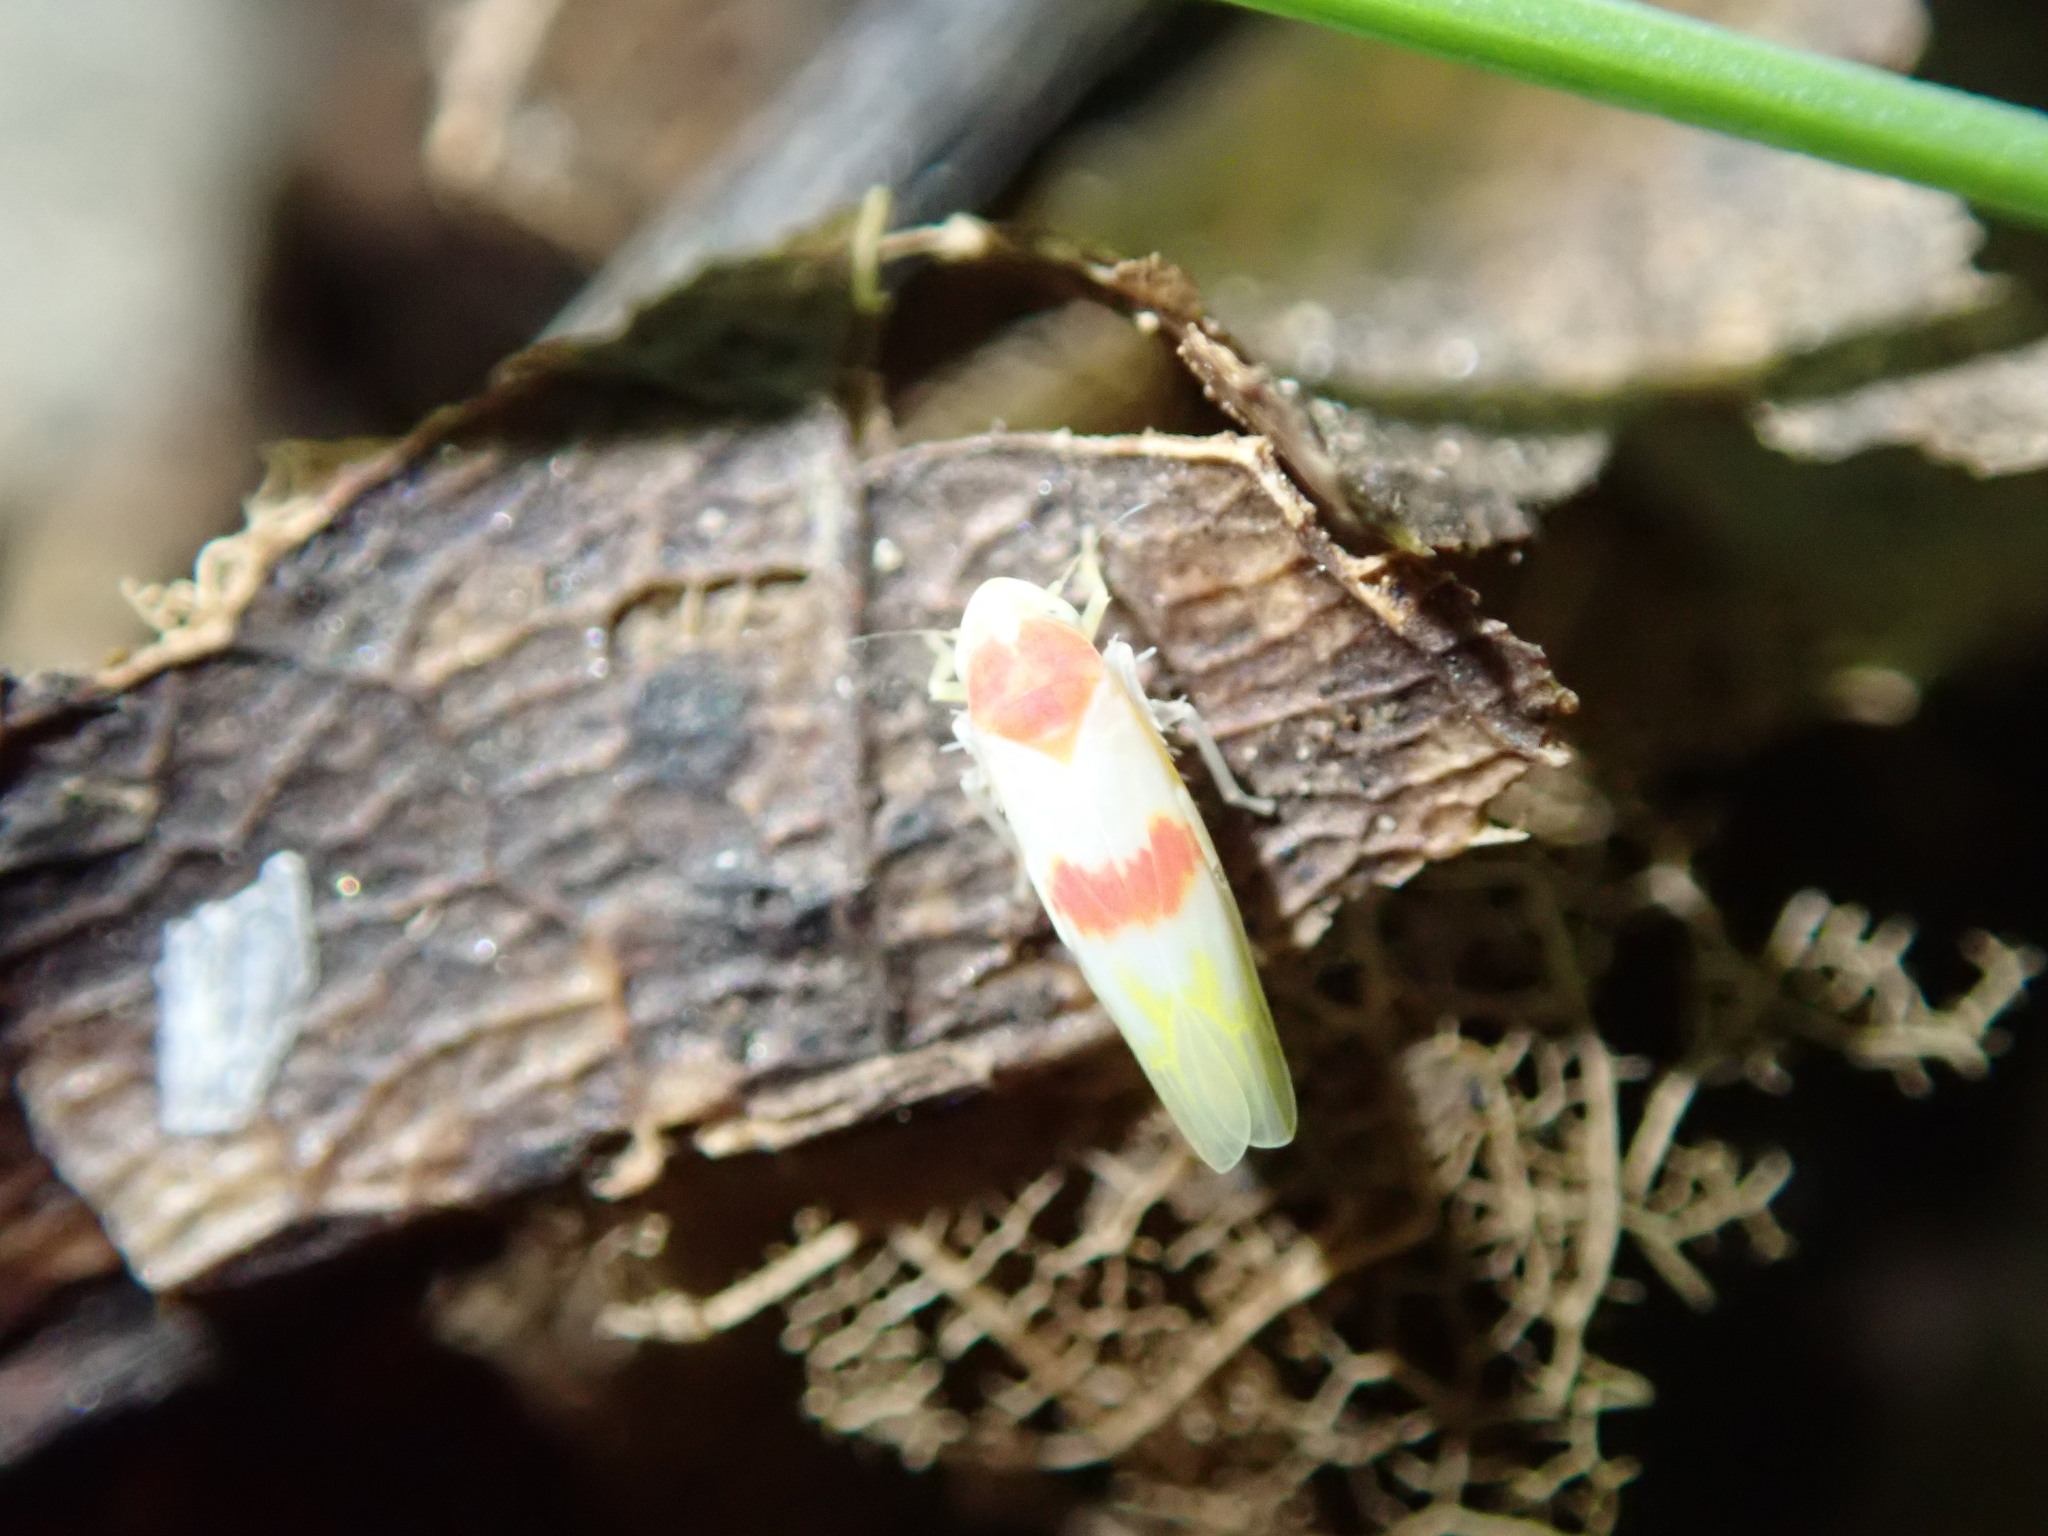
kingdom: Animalia
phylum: Arthropoda
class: Insecta
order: Hemiptera
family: Cicadellidae
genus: Erythridula
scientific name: Erythridula
